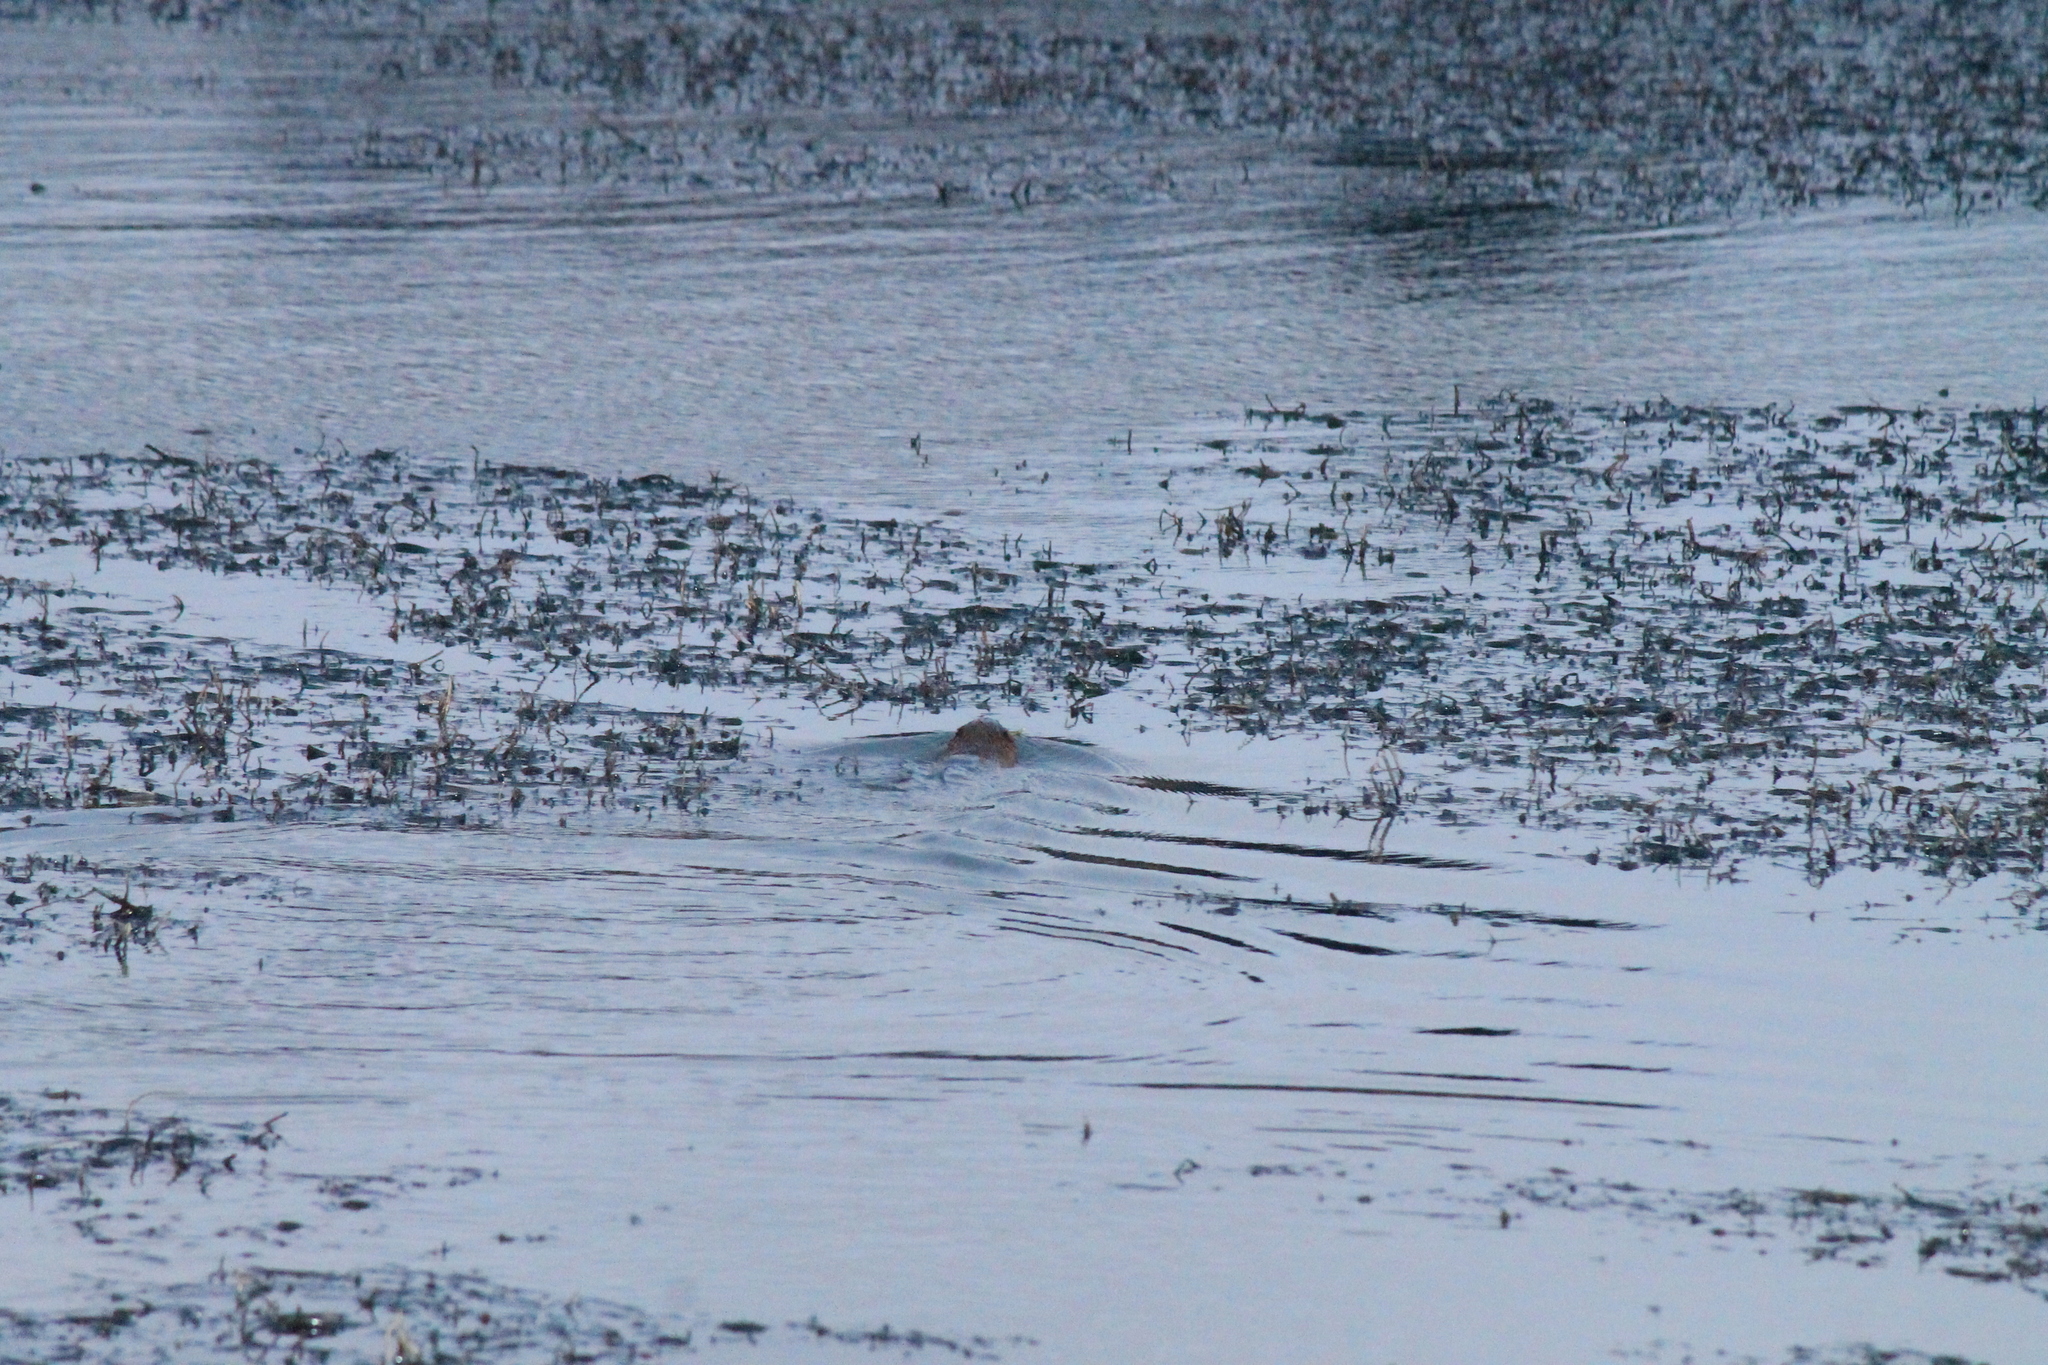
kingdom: Animalia
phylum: Chordata
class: Mammalia
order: Rodentia
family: Cricetidae
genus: Ondatra
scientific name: Ondatra zibethicus
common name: Muskrat
